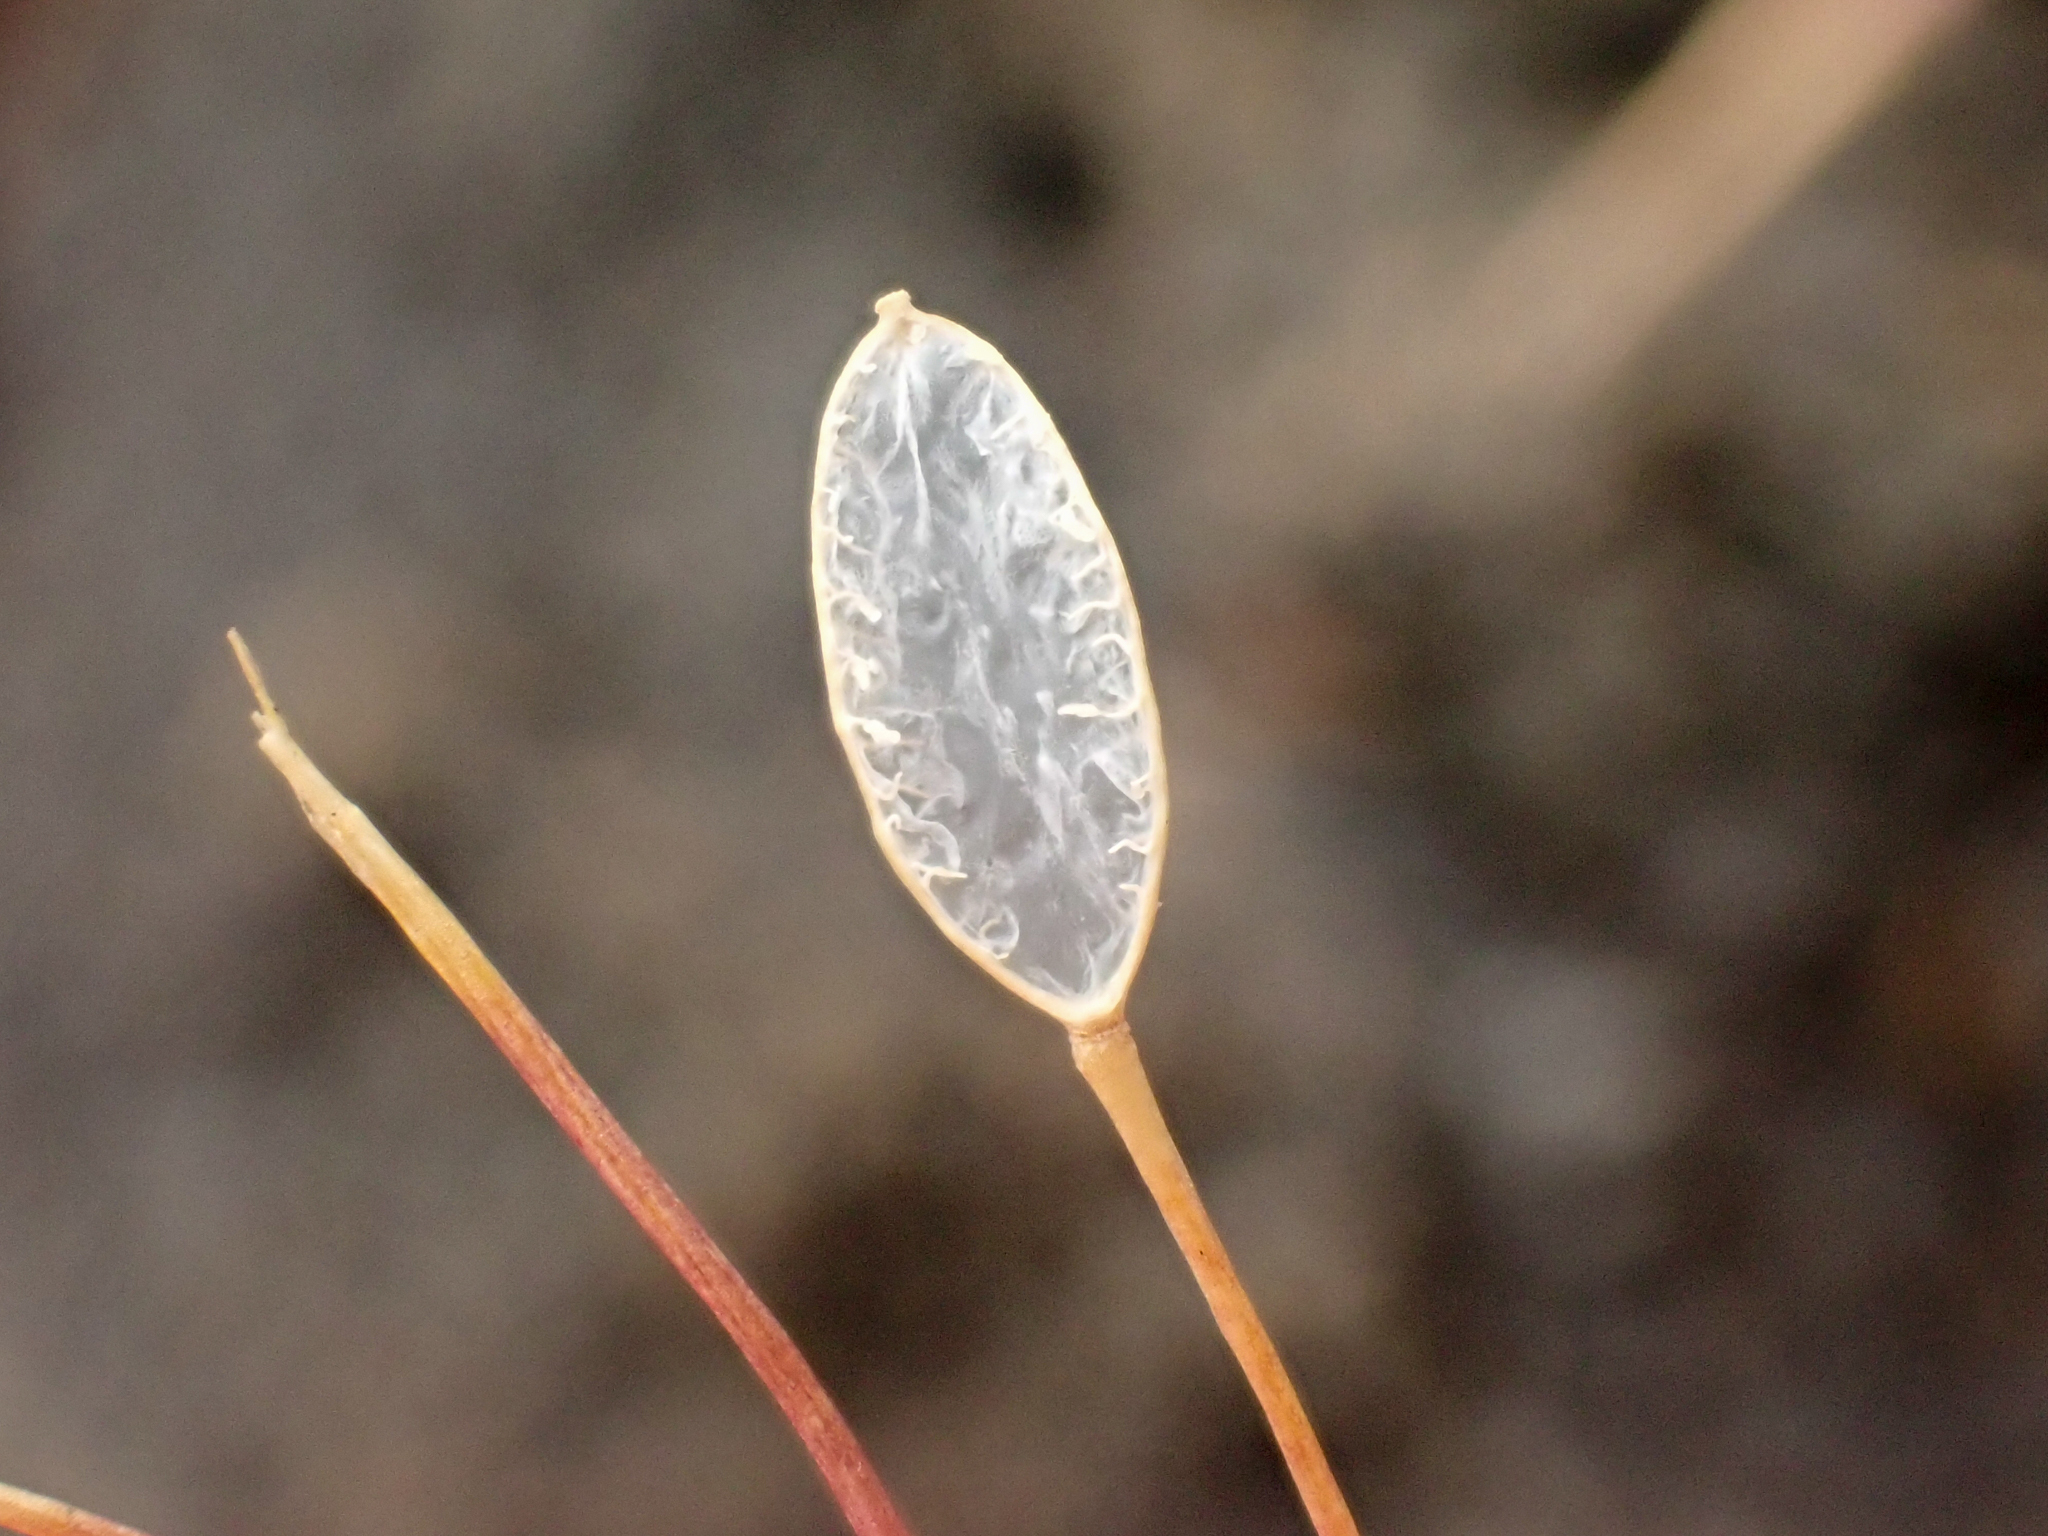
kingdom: Plantae
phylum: Tracheophyta
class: Magnoliopsida
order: Brassicales
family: Brassicaceae
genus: Draba
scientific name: Draba verna
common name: Spring draba
